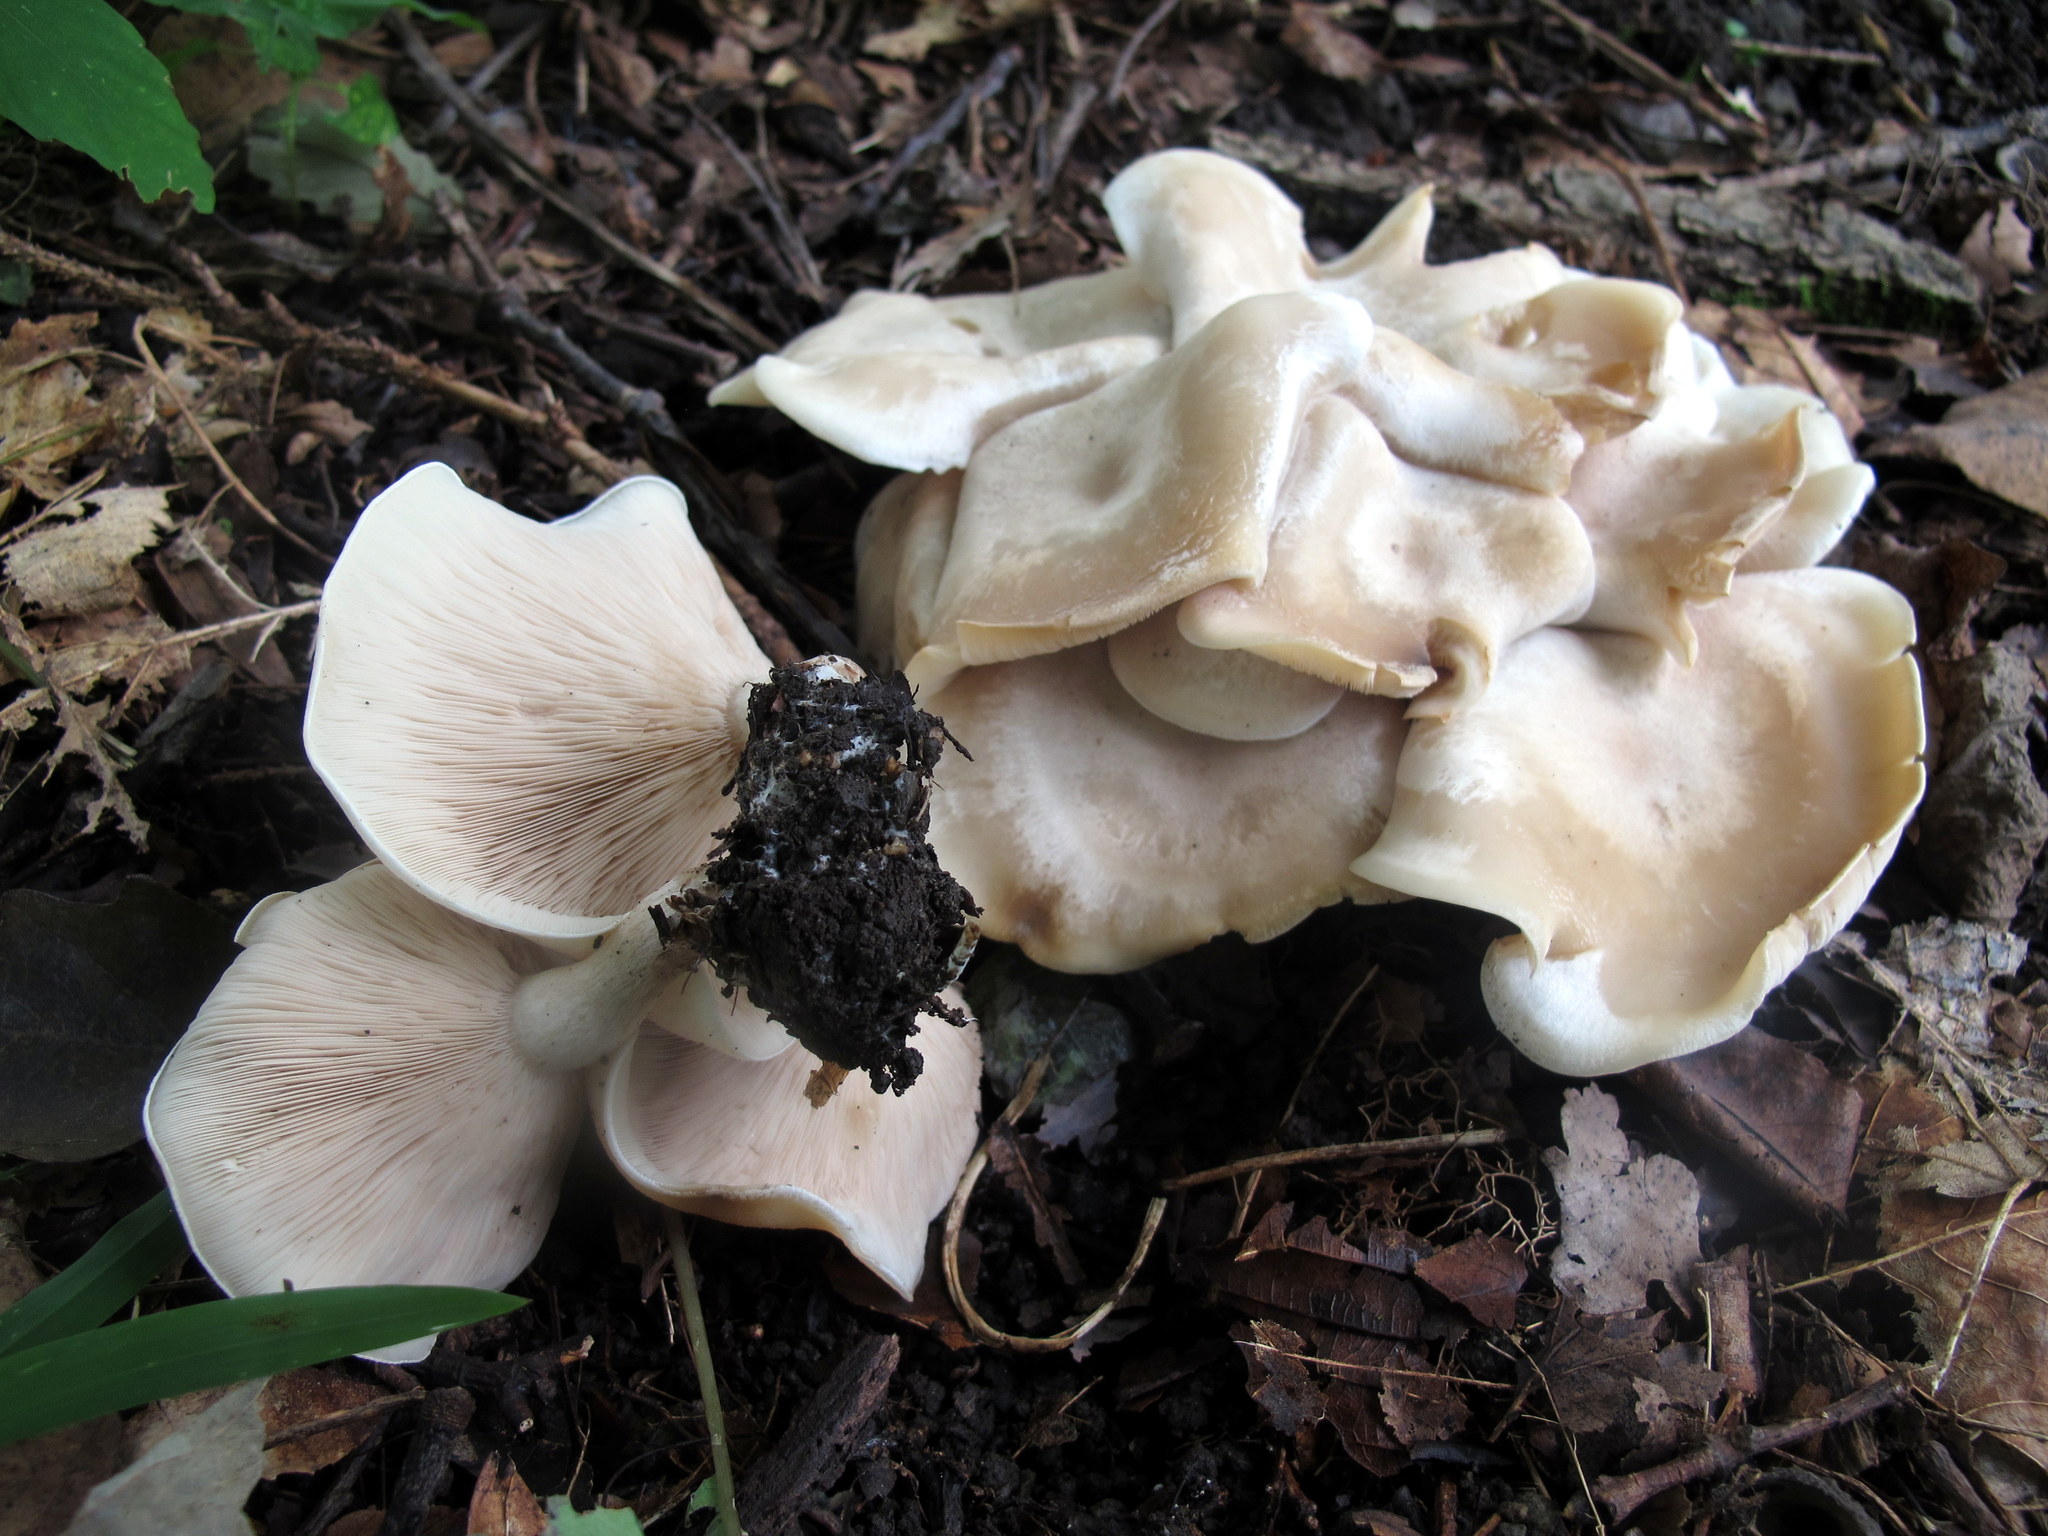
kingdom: Fungi
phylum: Basidiomycota
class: Agaricomycetes
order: Agaricales
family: Tricholomataceae
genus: Lepista
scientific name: Lepista subconnexa
